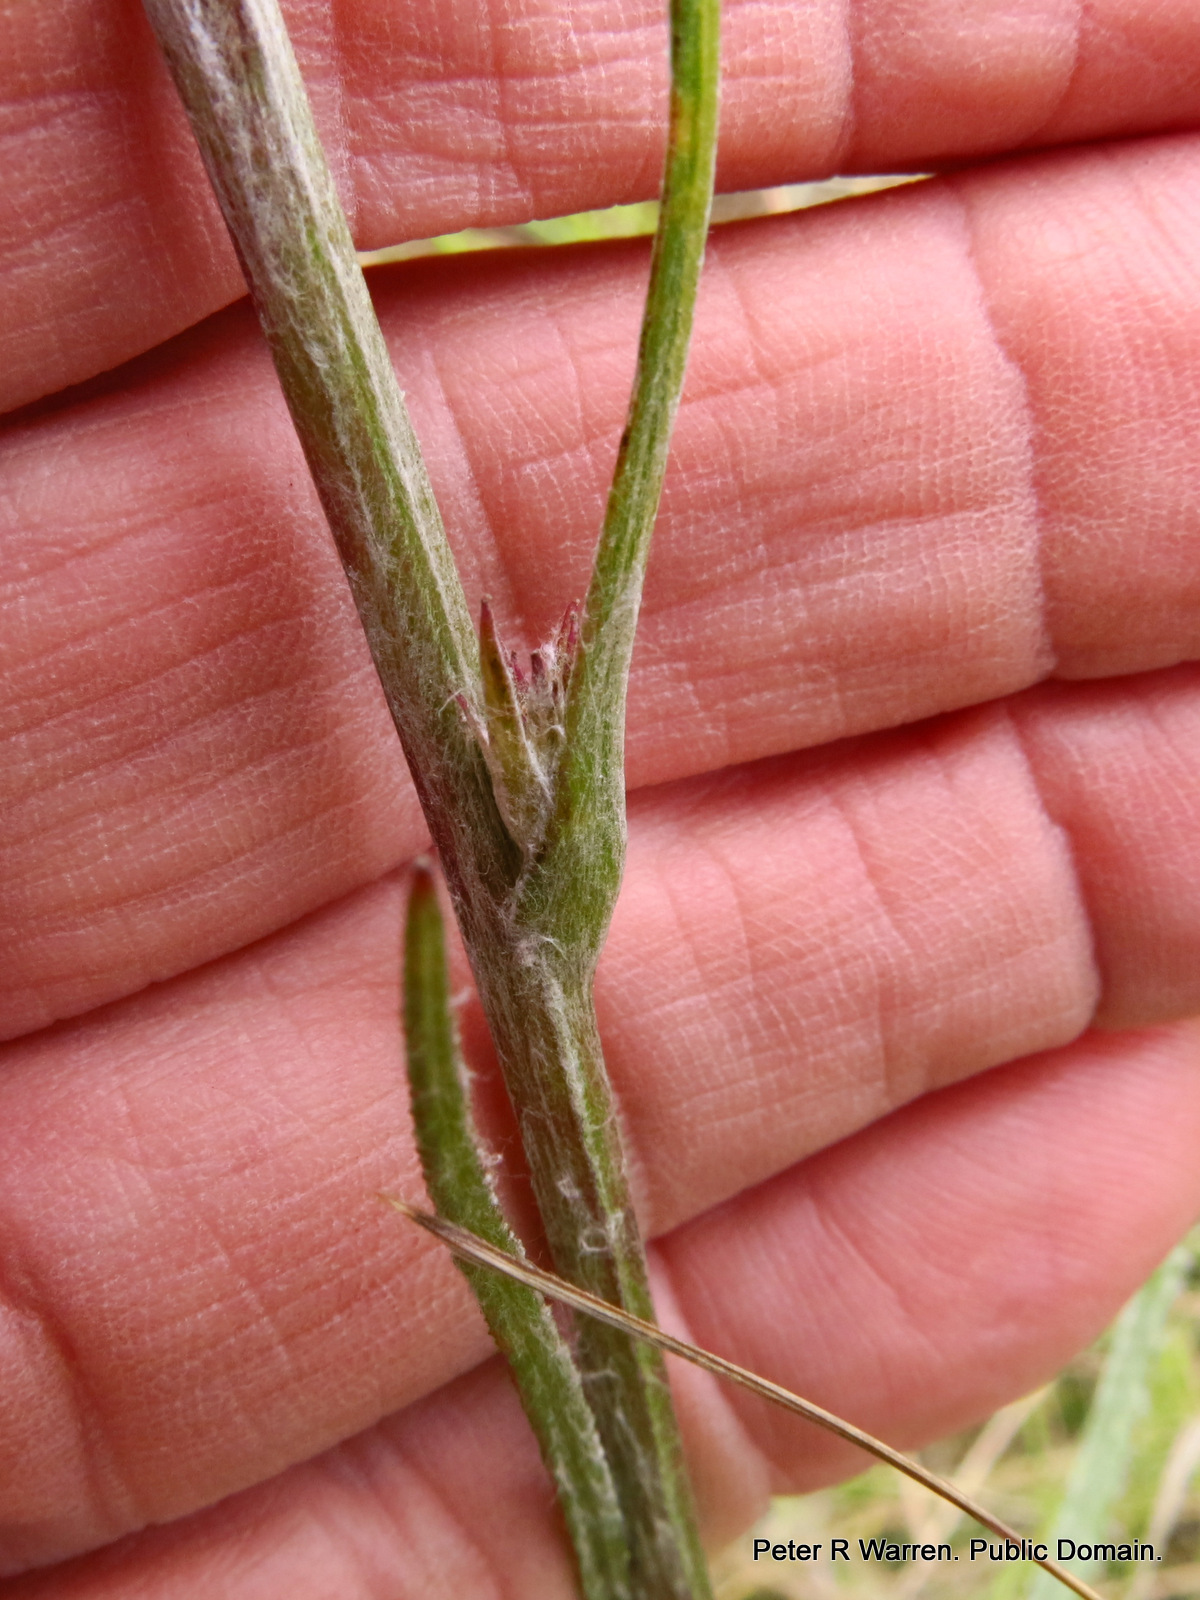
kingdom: Plantae
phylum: Tracheophyta
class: Magnoliopsida
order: Asterales
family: Asteraceae
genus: Senecio
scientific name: Senecio dregeanus
